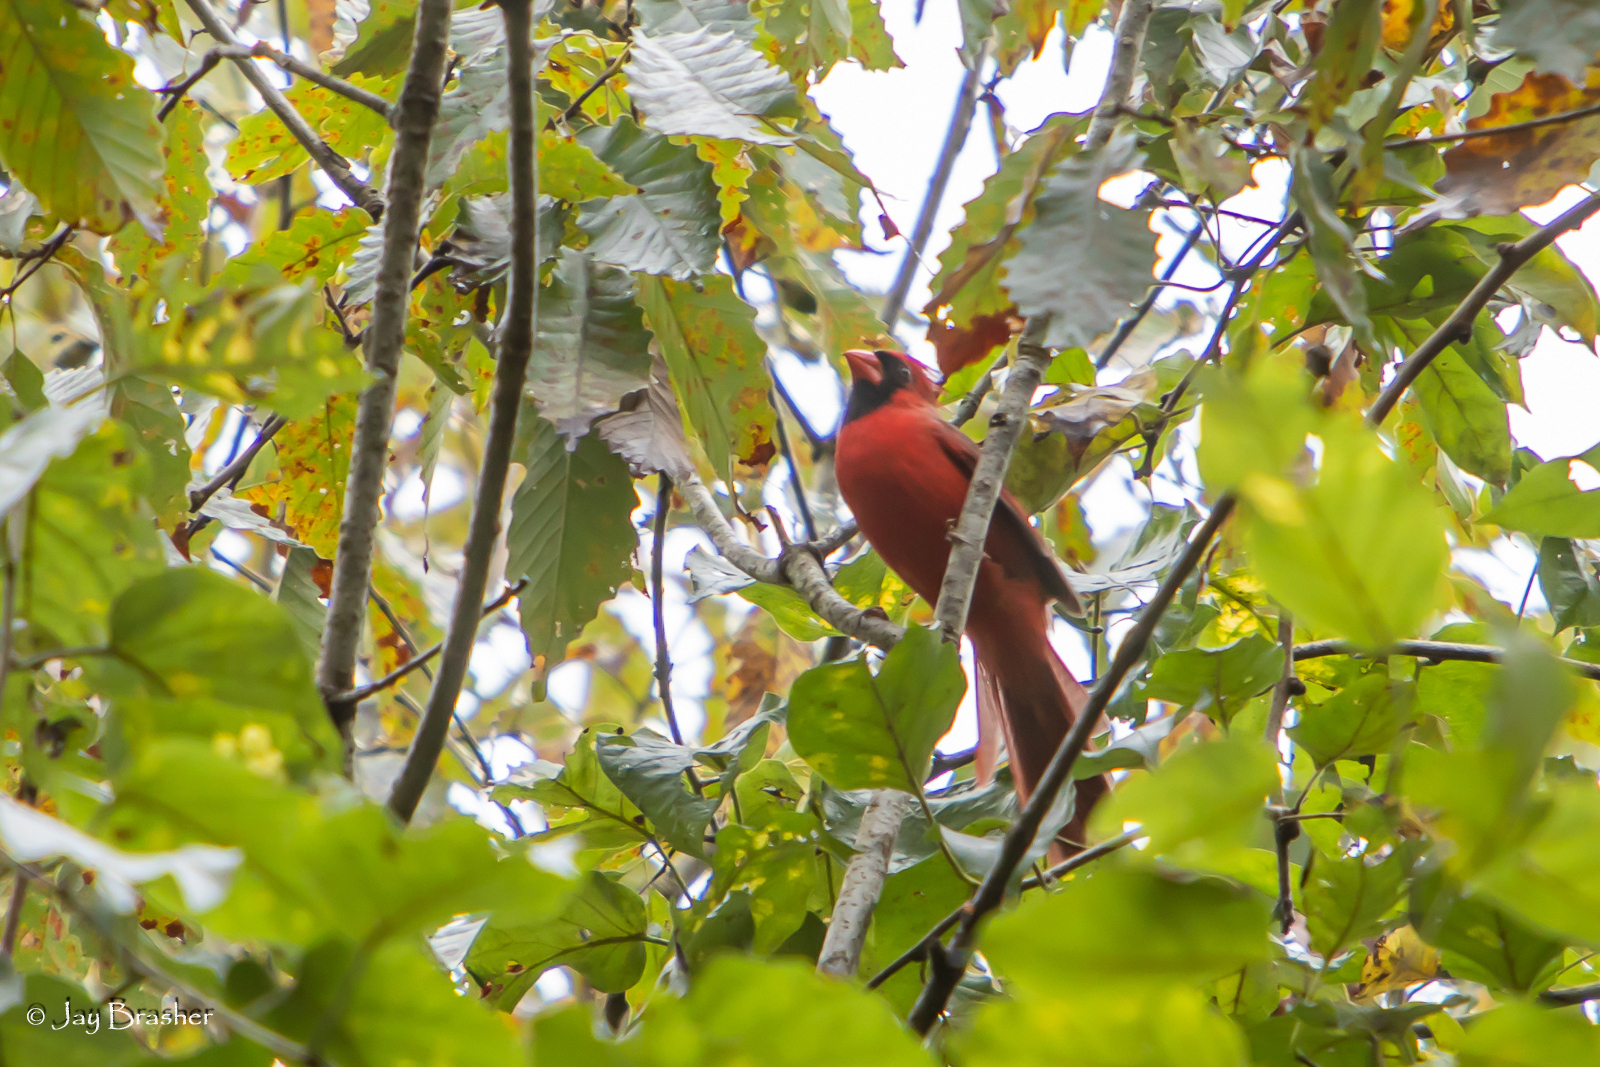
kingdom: Animalia
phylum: Chordata
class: Aves
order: Passeriformes
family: Cardinalidae
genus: Cardinalis
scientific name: Cardinalis cardinalis
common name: Northern cardinal
